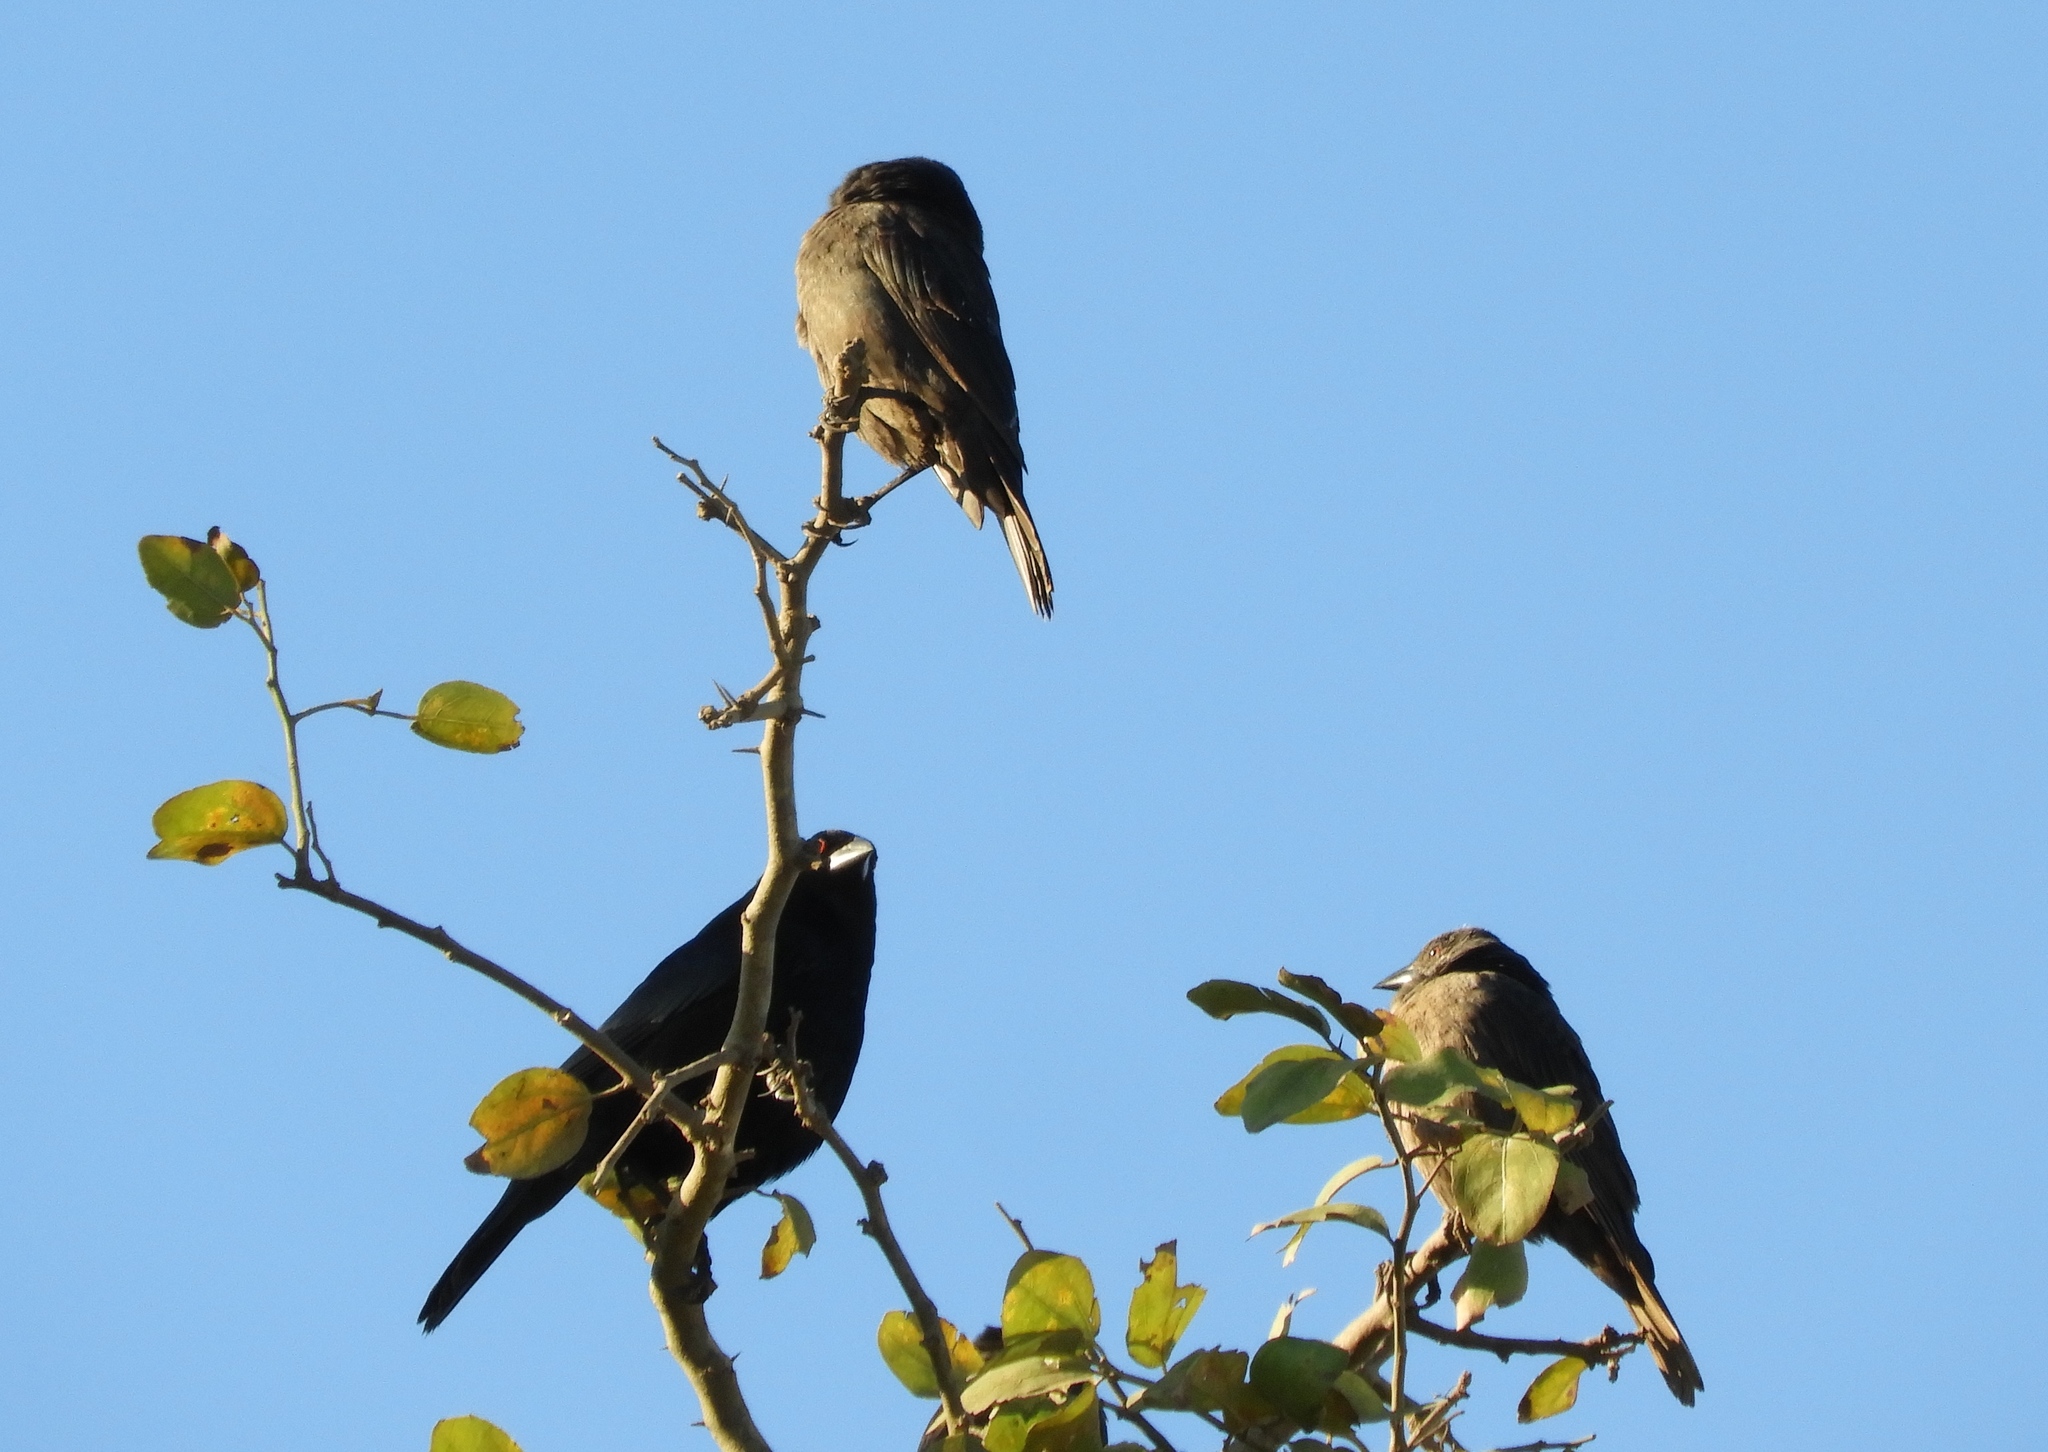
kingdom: Animalia
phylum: Chordata
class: Aves
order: Passeriformes
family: Icteridae
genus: Molothrus
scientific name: Molothrus aeneus
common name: Bronzed cowbird
